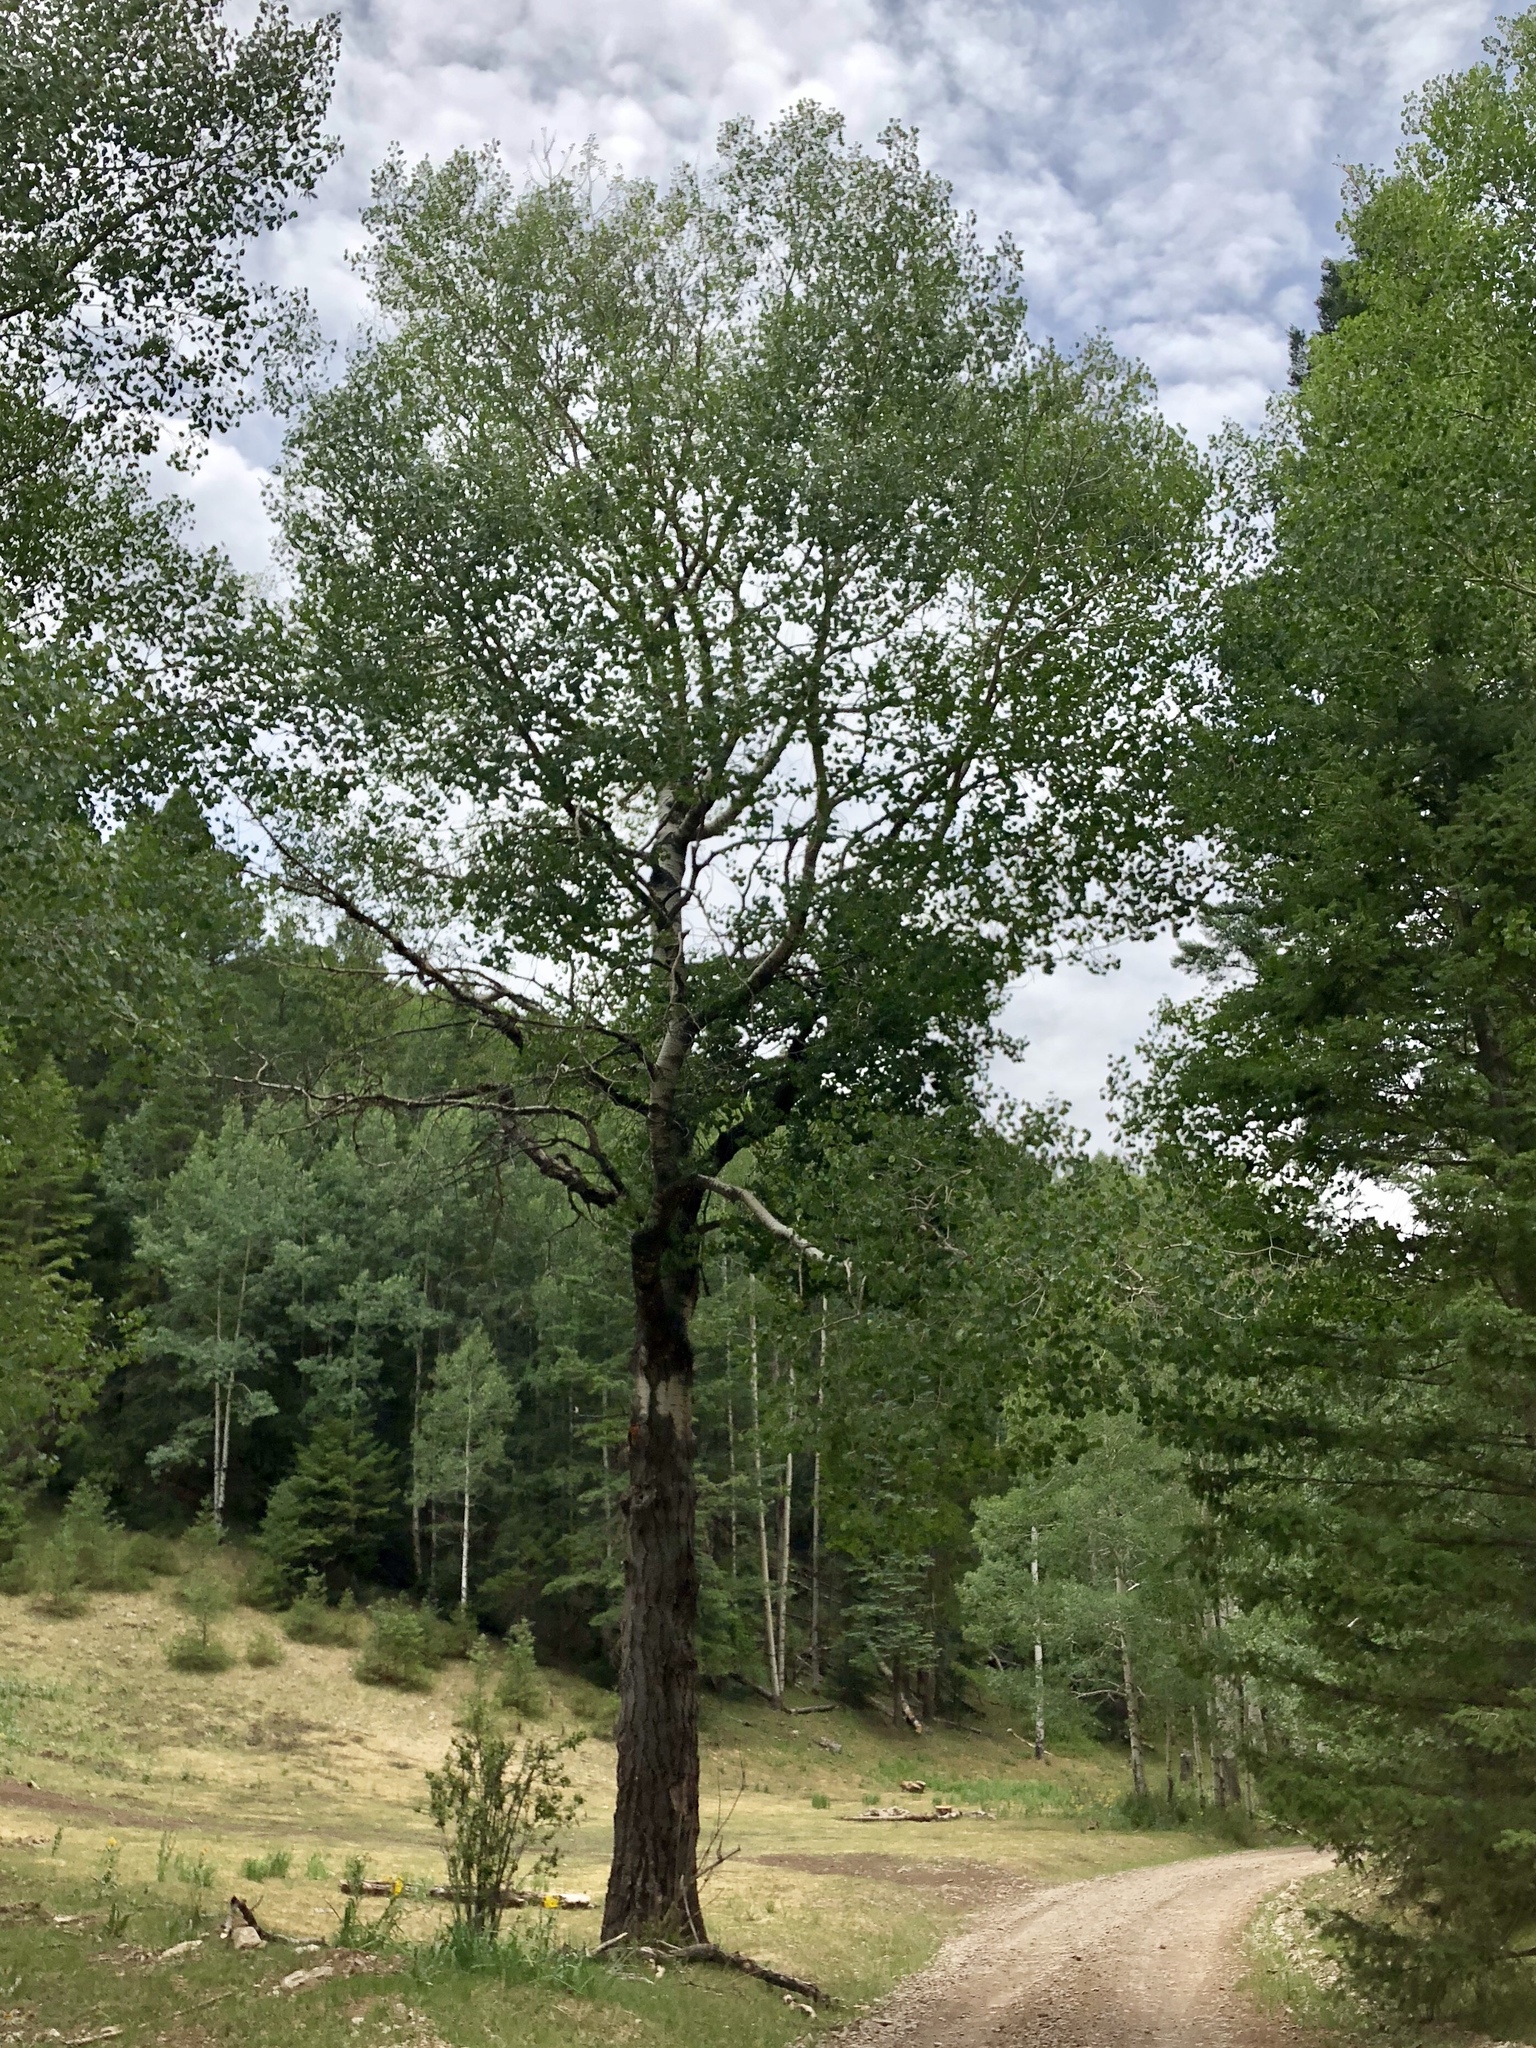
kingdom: Plantae
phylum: Tracheophyta
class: Magnoliopsida
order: Malpighiales
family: Salicaceae
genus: Populus
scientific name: Populus tremuloides
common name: Quaking aspen
